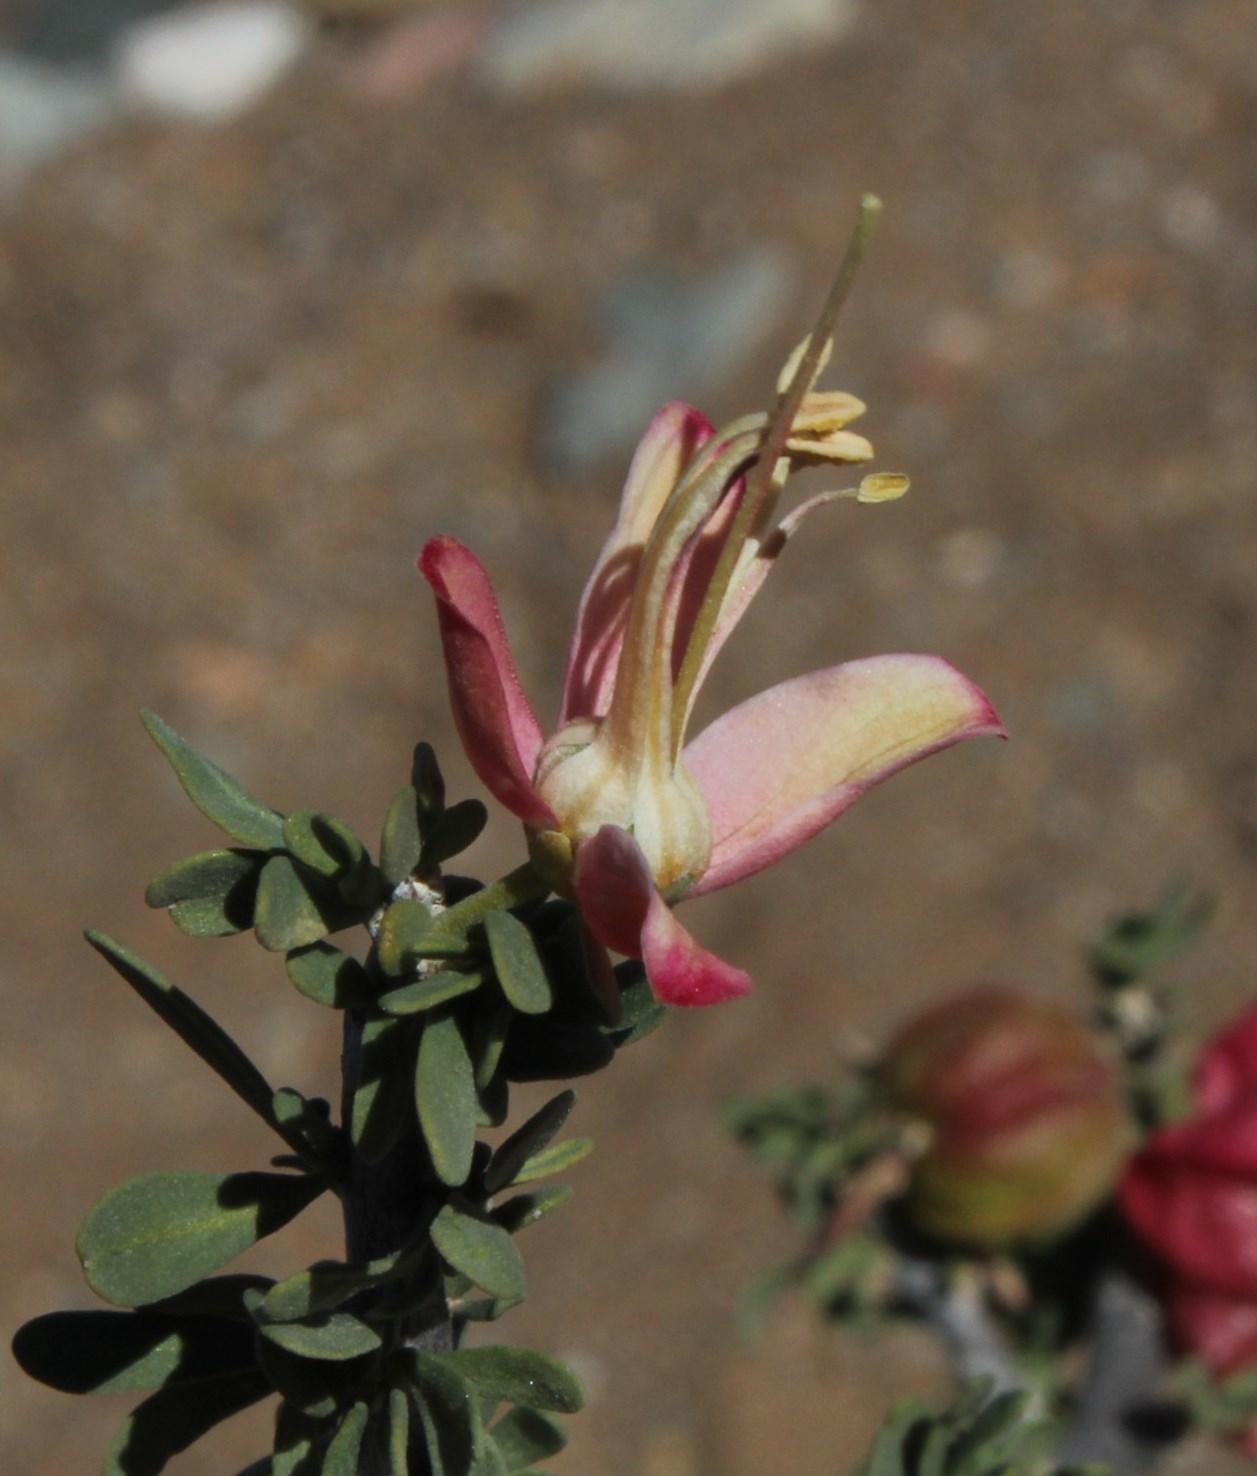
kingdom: Plantae
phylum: Tracheophyta
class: Magnoliopsida
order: Sapindales
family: Meliaceae
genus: Nymania
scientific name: Nymania capensis
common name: Chinese lantern tree
